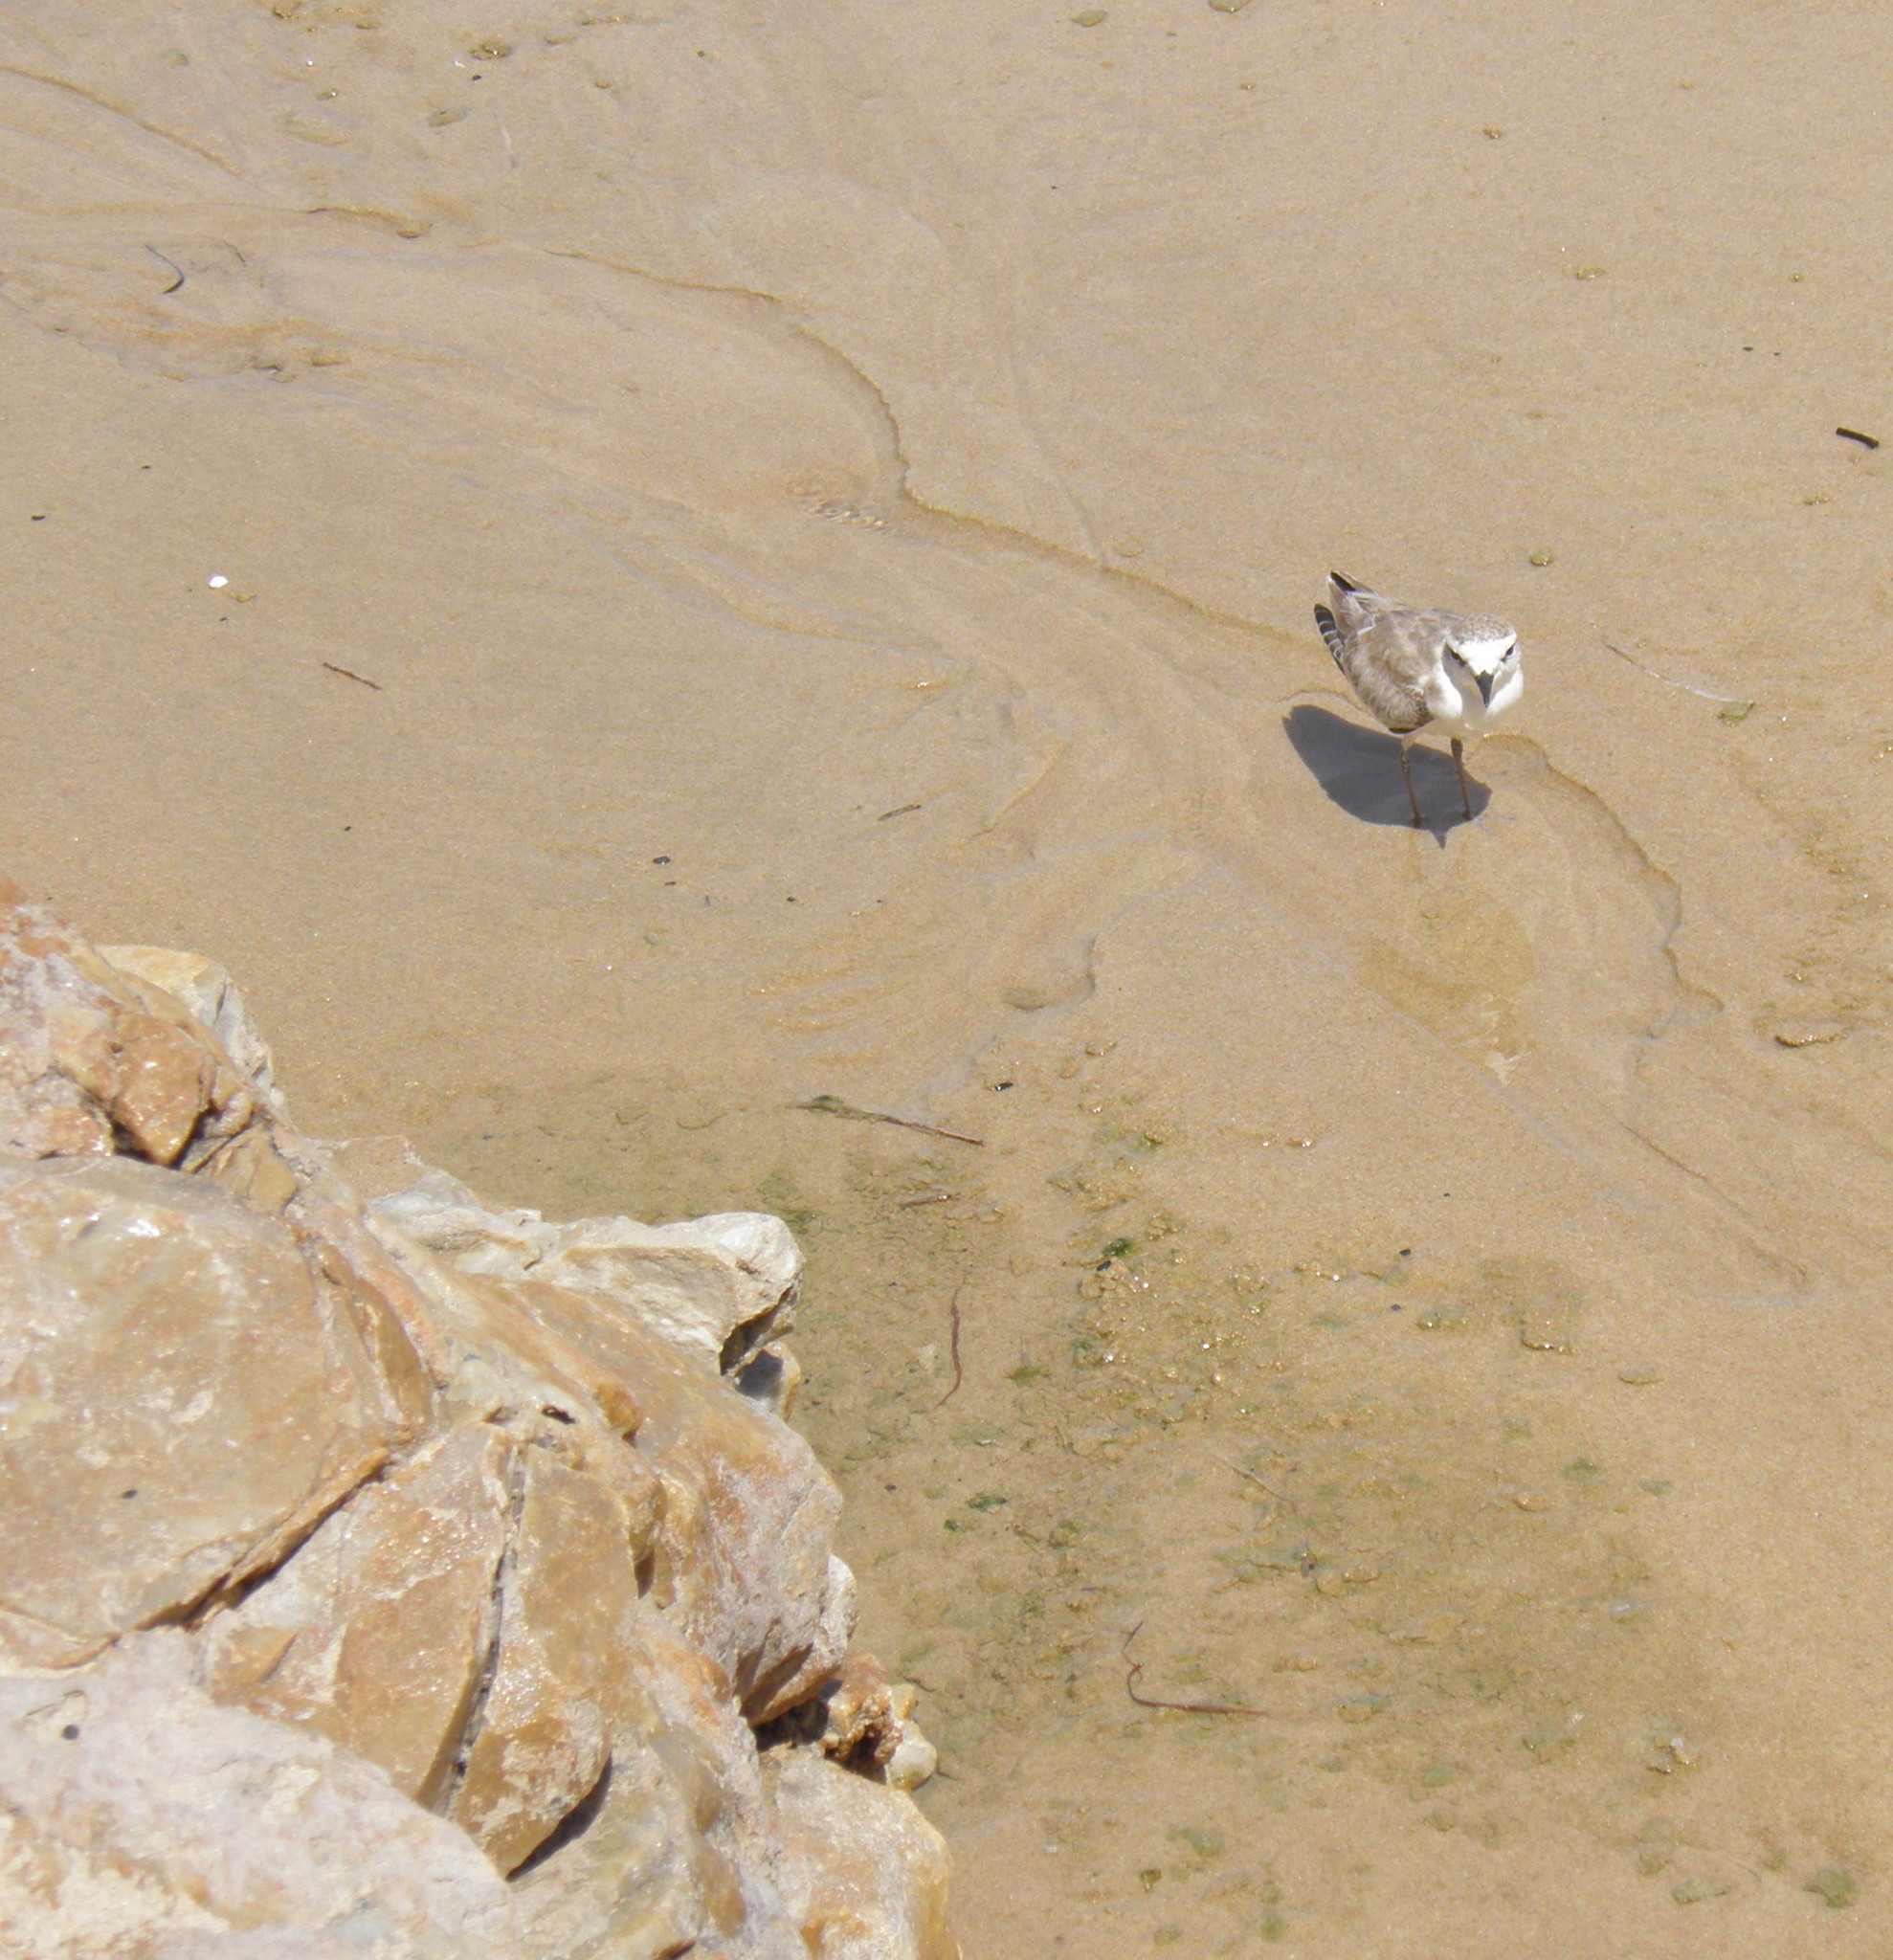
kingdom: Animalia
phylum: Chordata
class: Aves
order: Charadriiformes
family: Charadriidae
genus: Anarhynchus
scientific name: Anarhynchus
